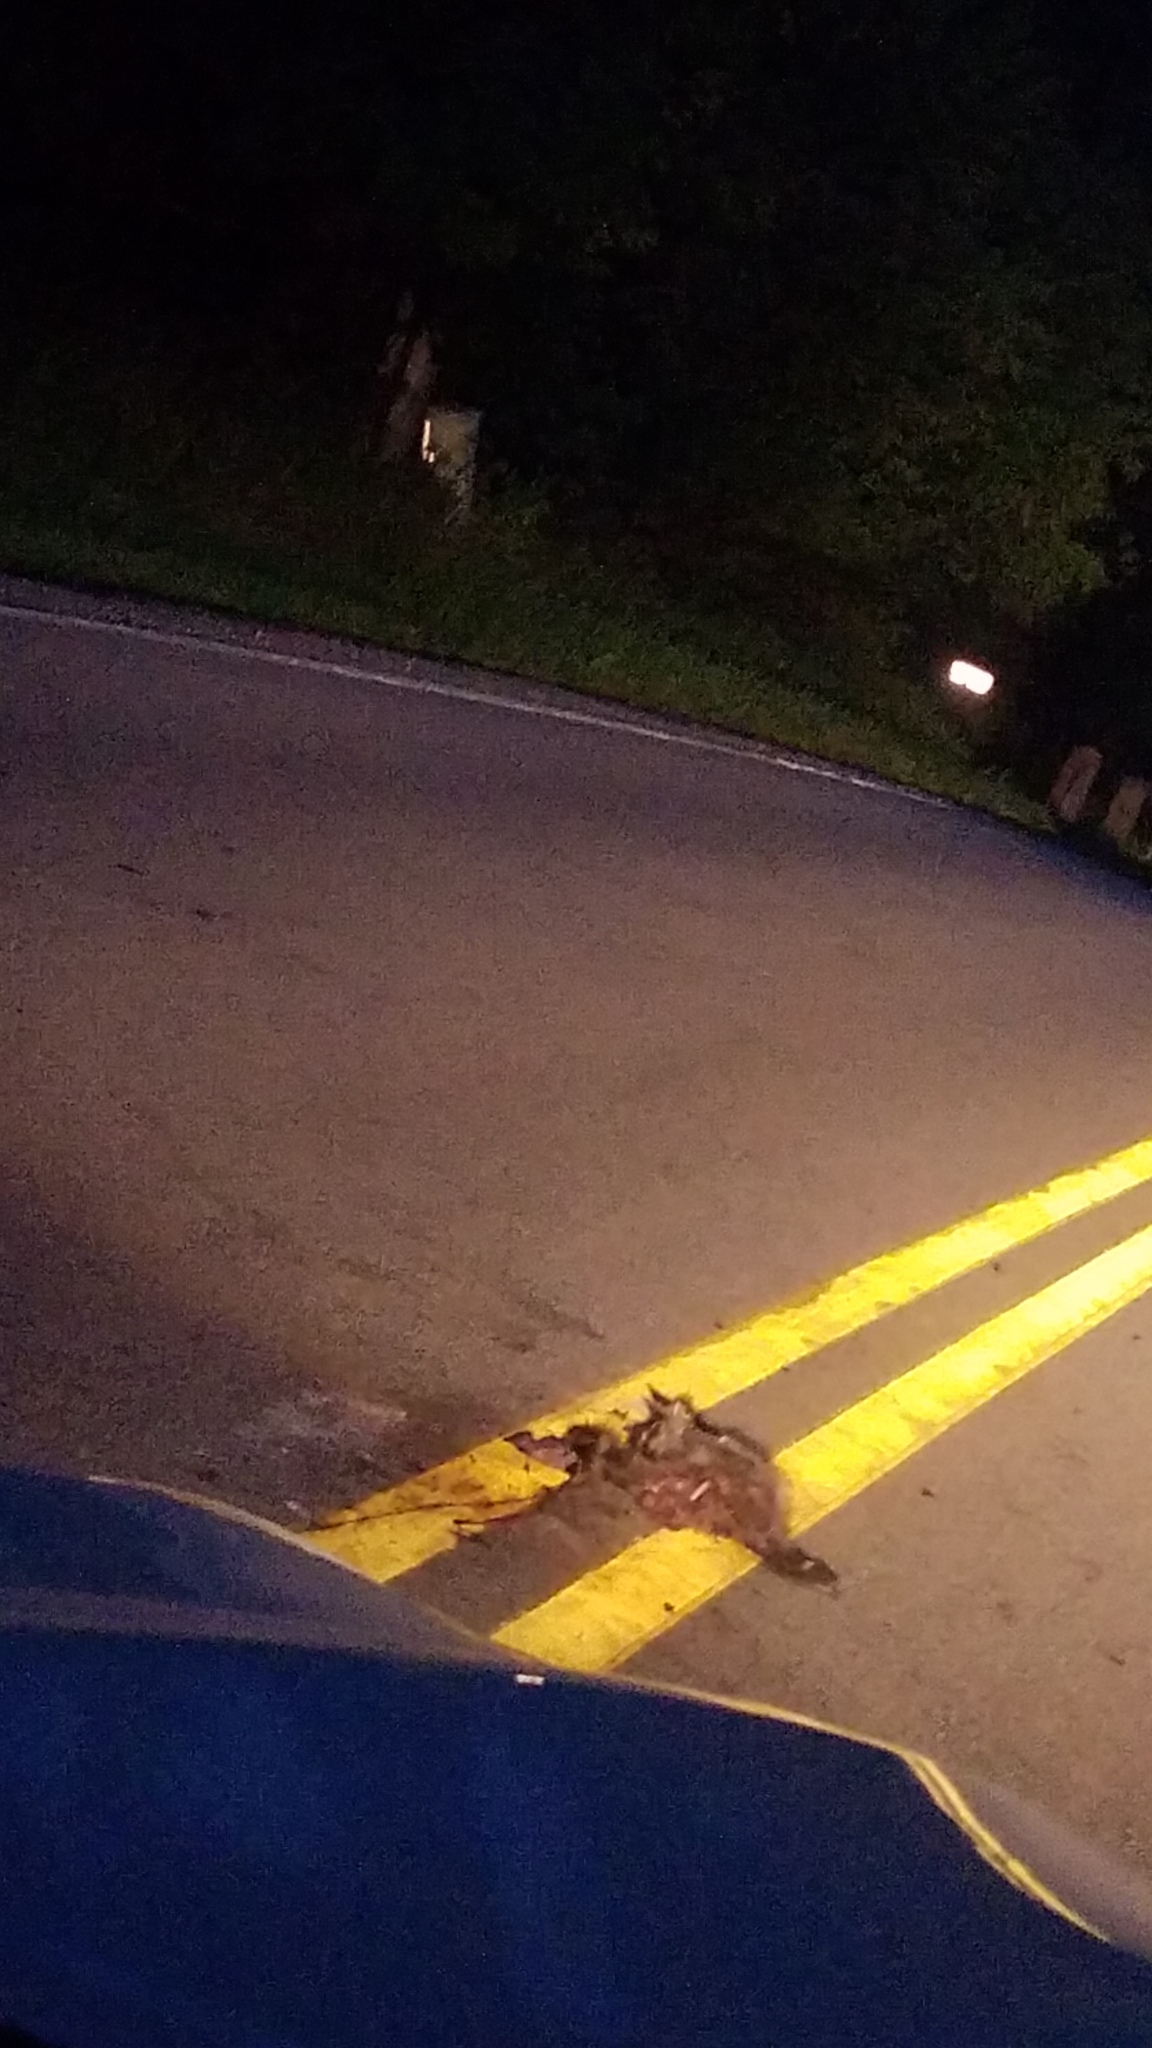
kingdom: Animalia
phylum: Chordata
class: Mammalia
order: Carnivora
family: Procyonidae
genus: Procyon
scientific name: Procyon lotor
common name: Raccoon
